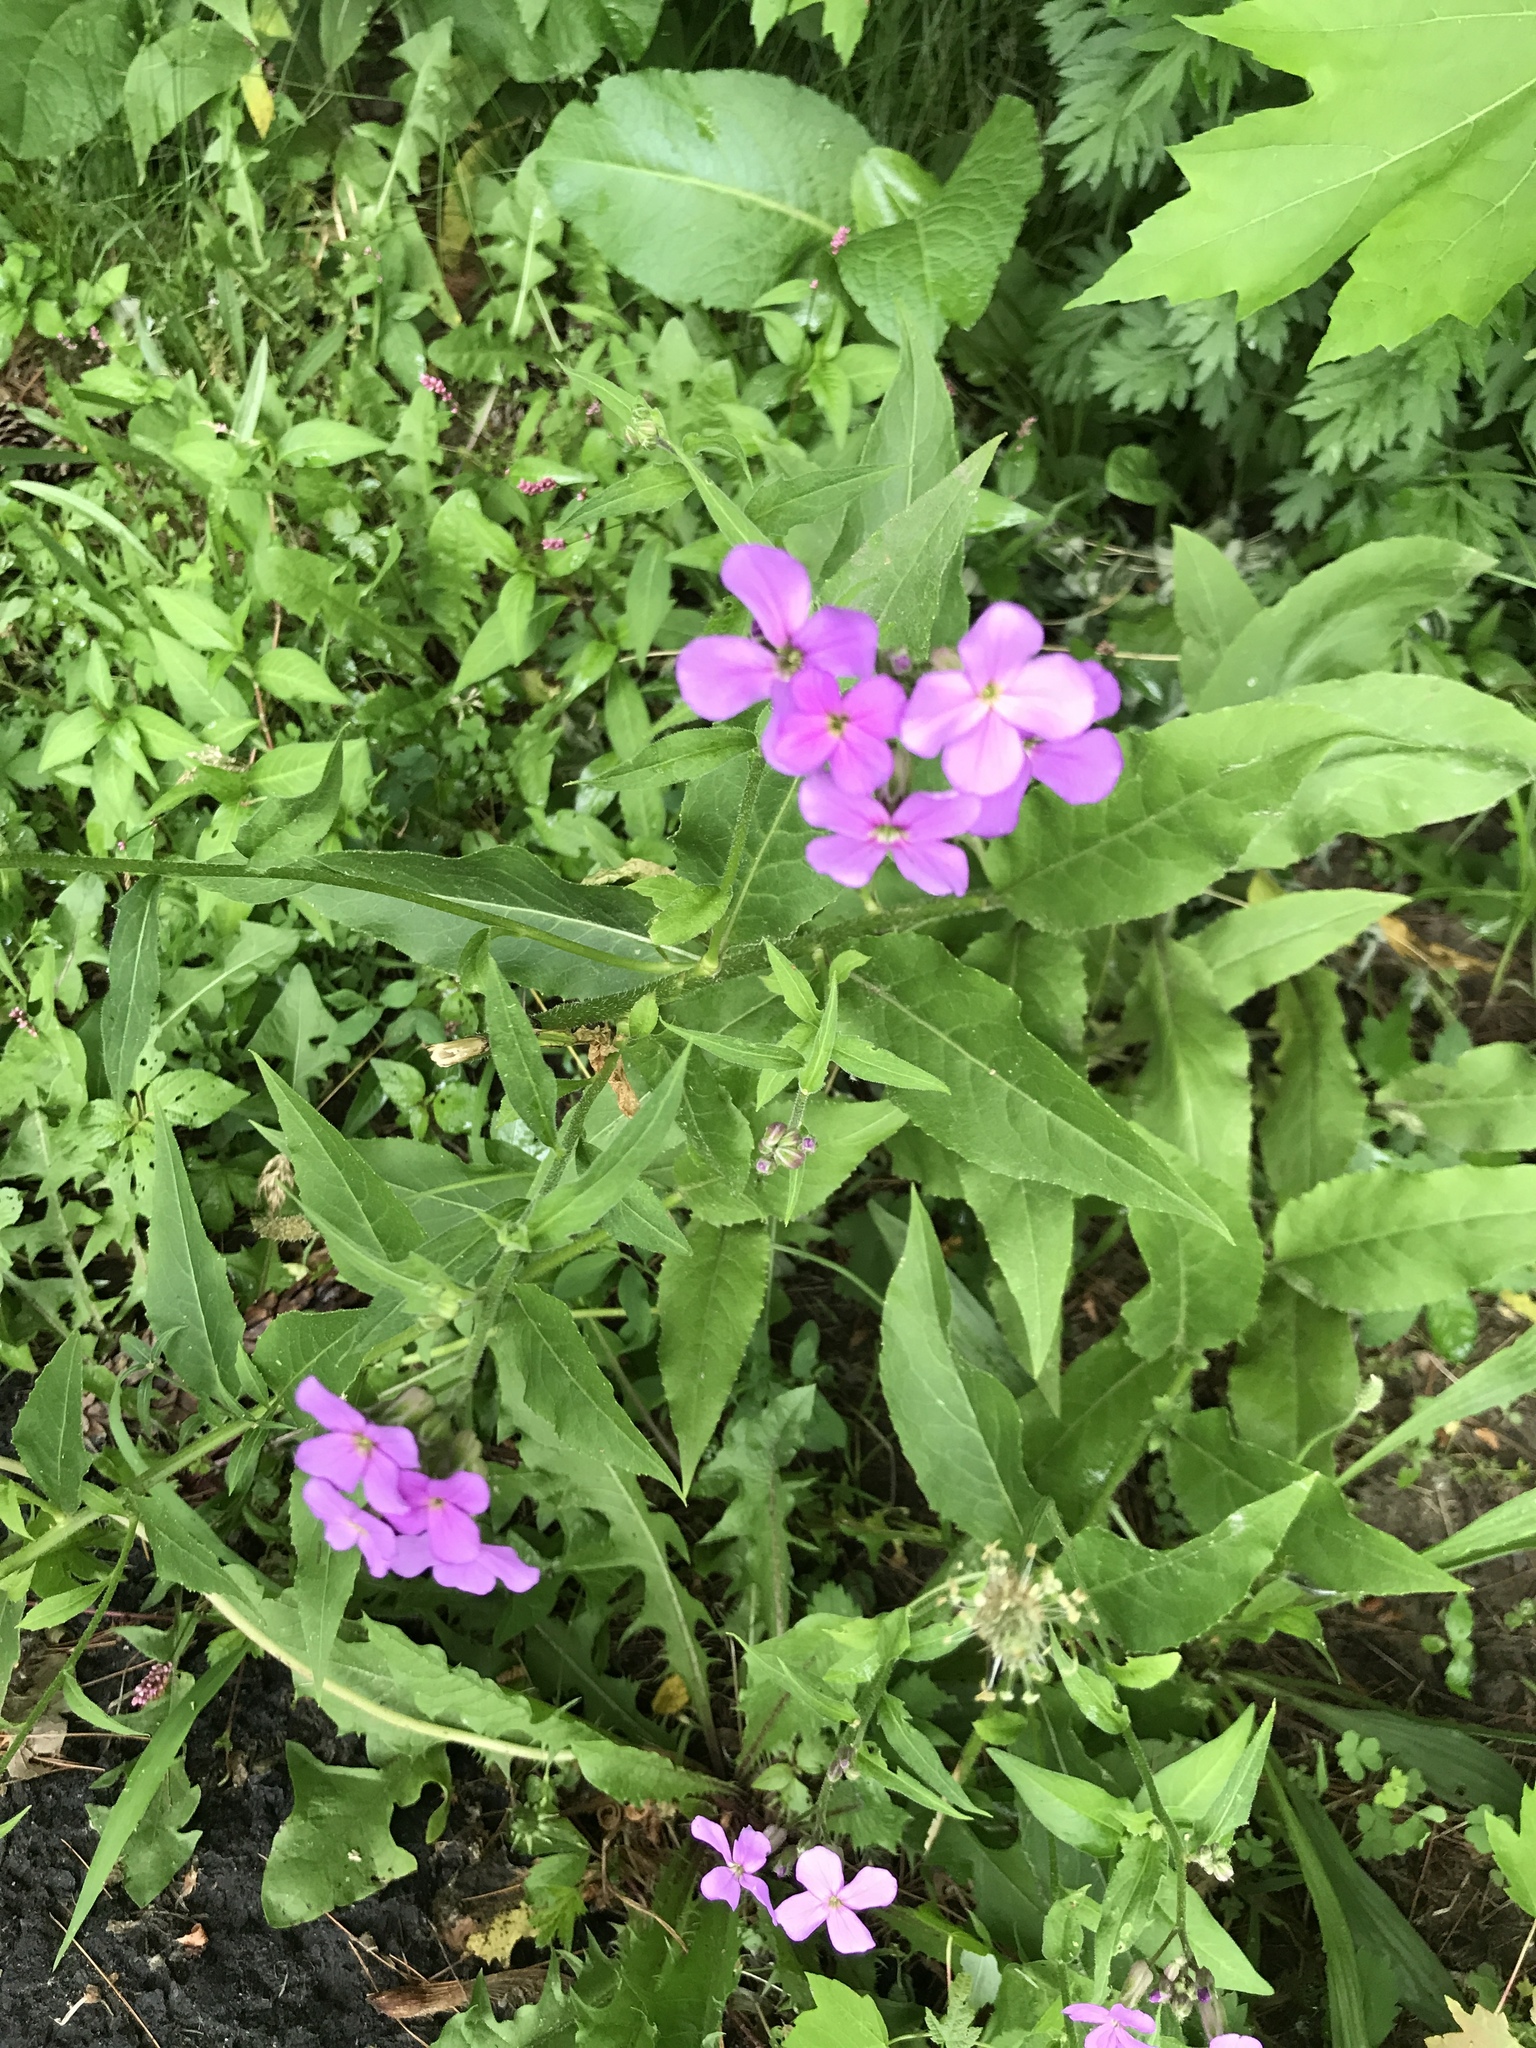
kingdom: Plantae
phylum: Tracheophyta
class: Magnoliopsida
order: Brassicales
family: Brassicaceae
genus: Hesperis
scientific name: Hesperis matronalis
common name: Dame's-violet
